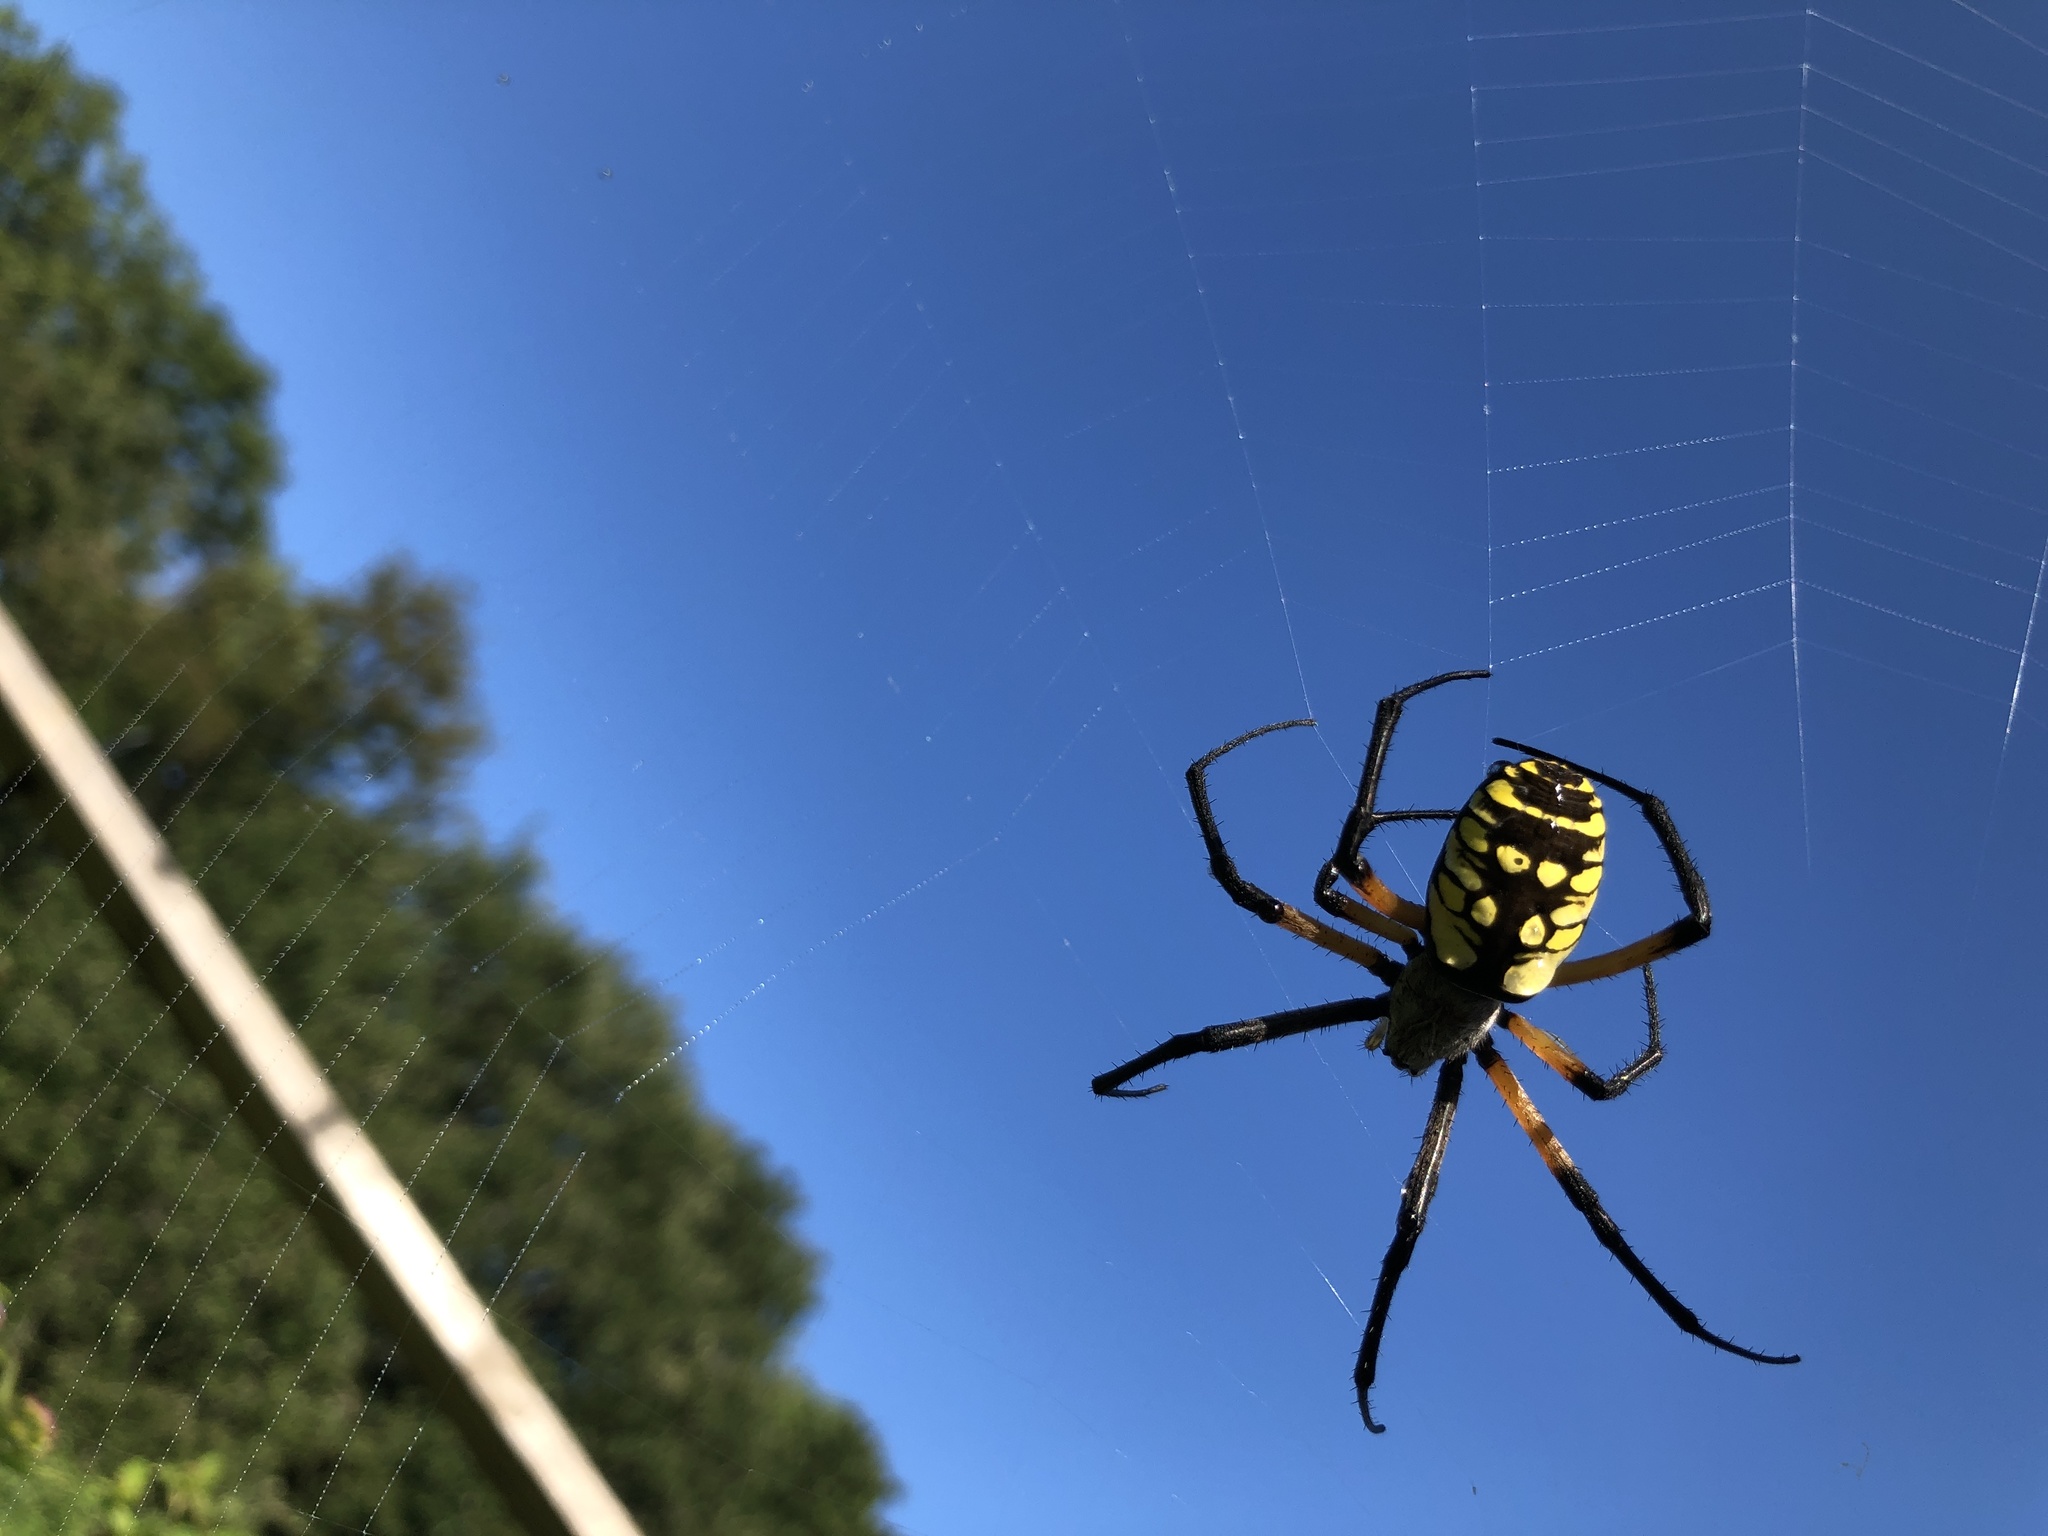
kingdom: Animalia
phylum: Arthropoda
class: Arachnida
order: Araneae
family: Araneidae
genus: Argiope
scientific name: Argiope aurantia
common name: Orb weavers
